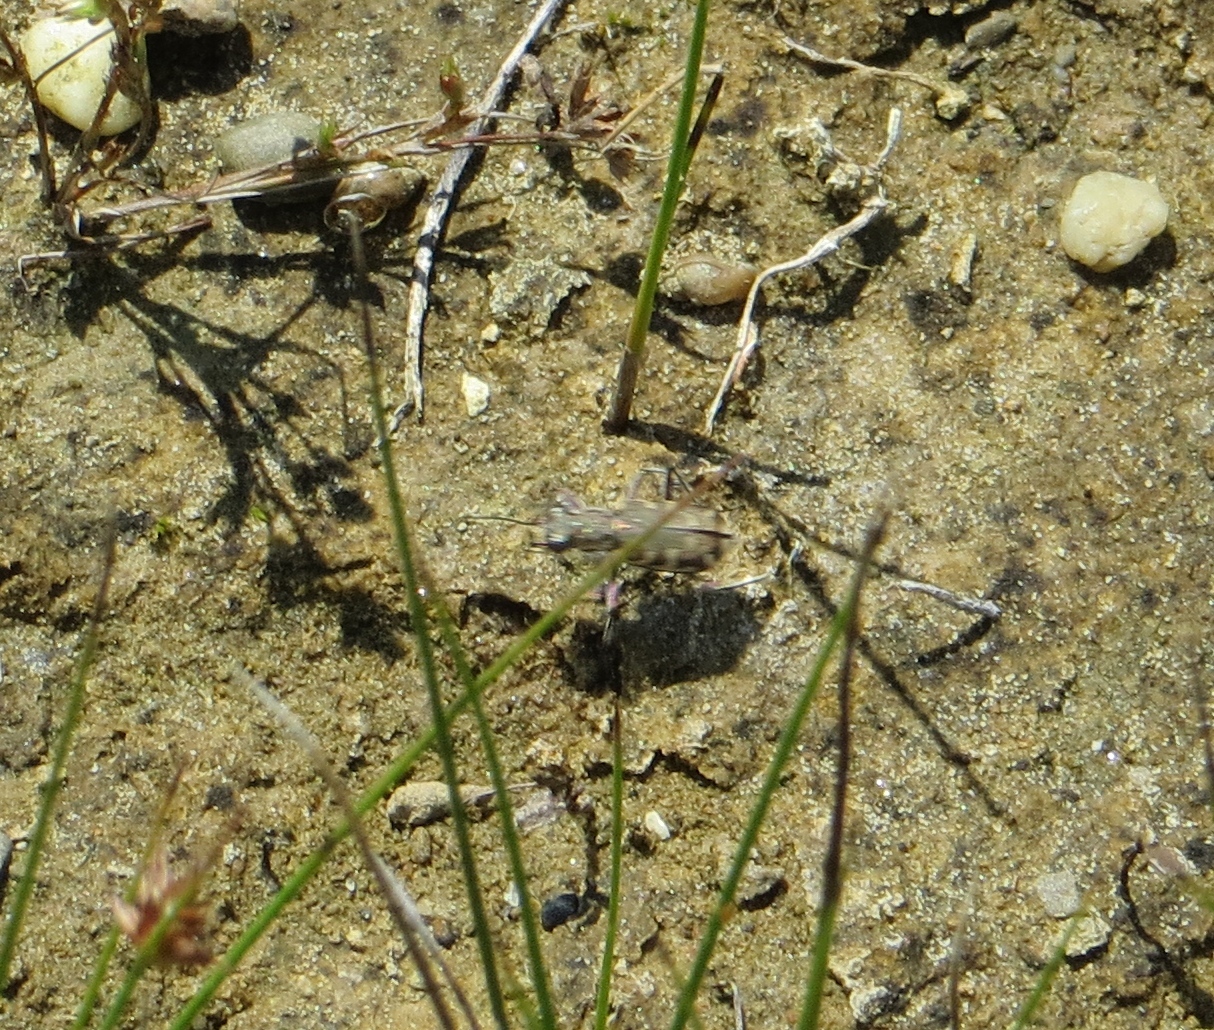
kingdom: Animalia
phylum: Arthropoda
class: Insecta
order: Coleoptera
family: Carabidae
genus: Cicindela
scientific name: Cicindela repanda
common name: Bronzed tiger beetle
